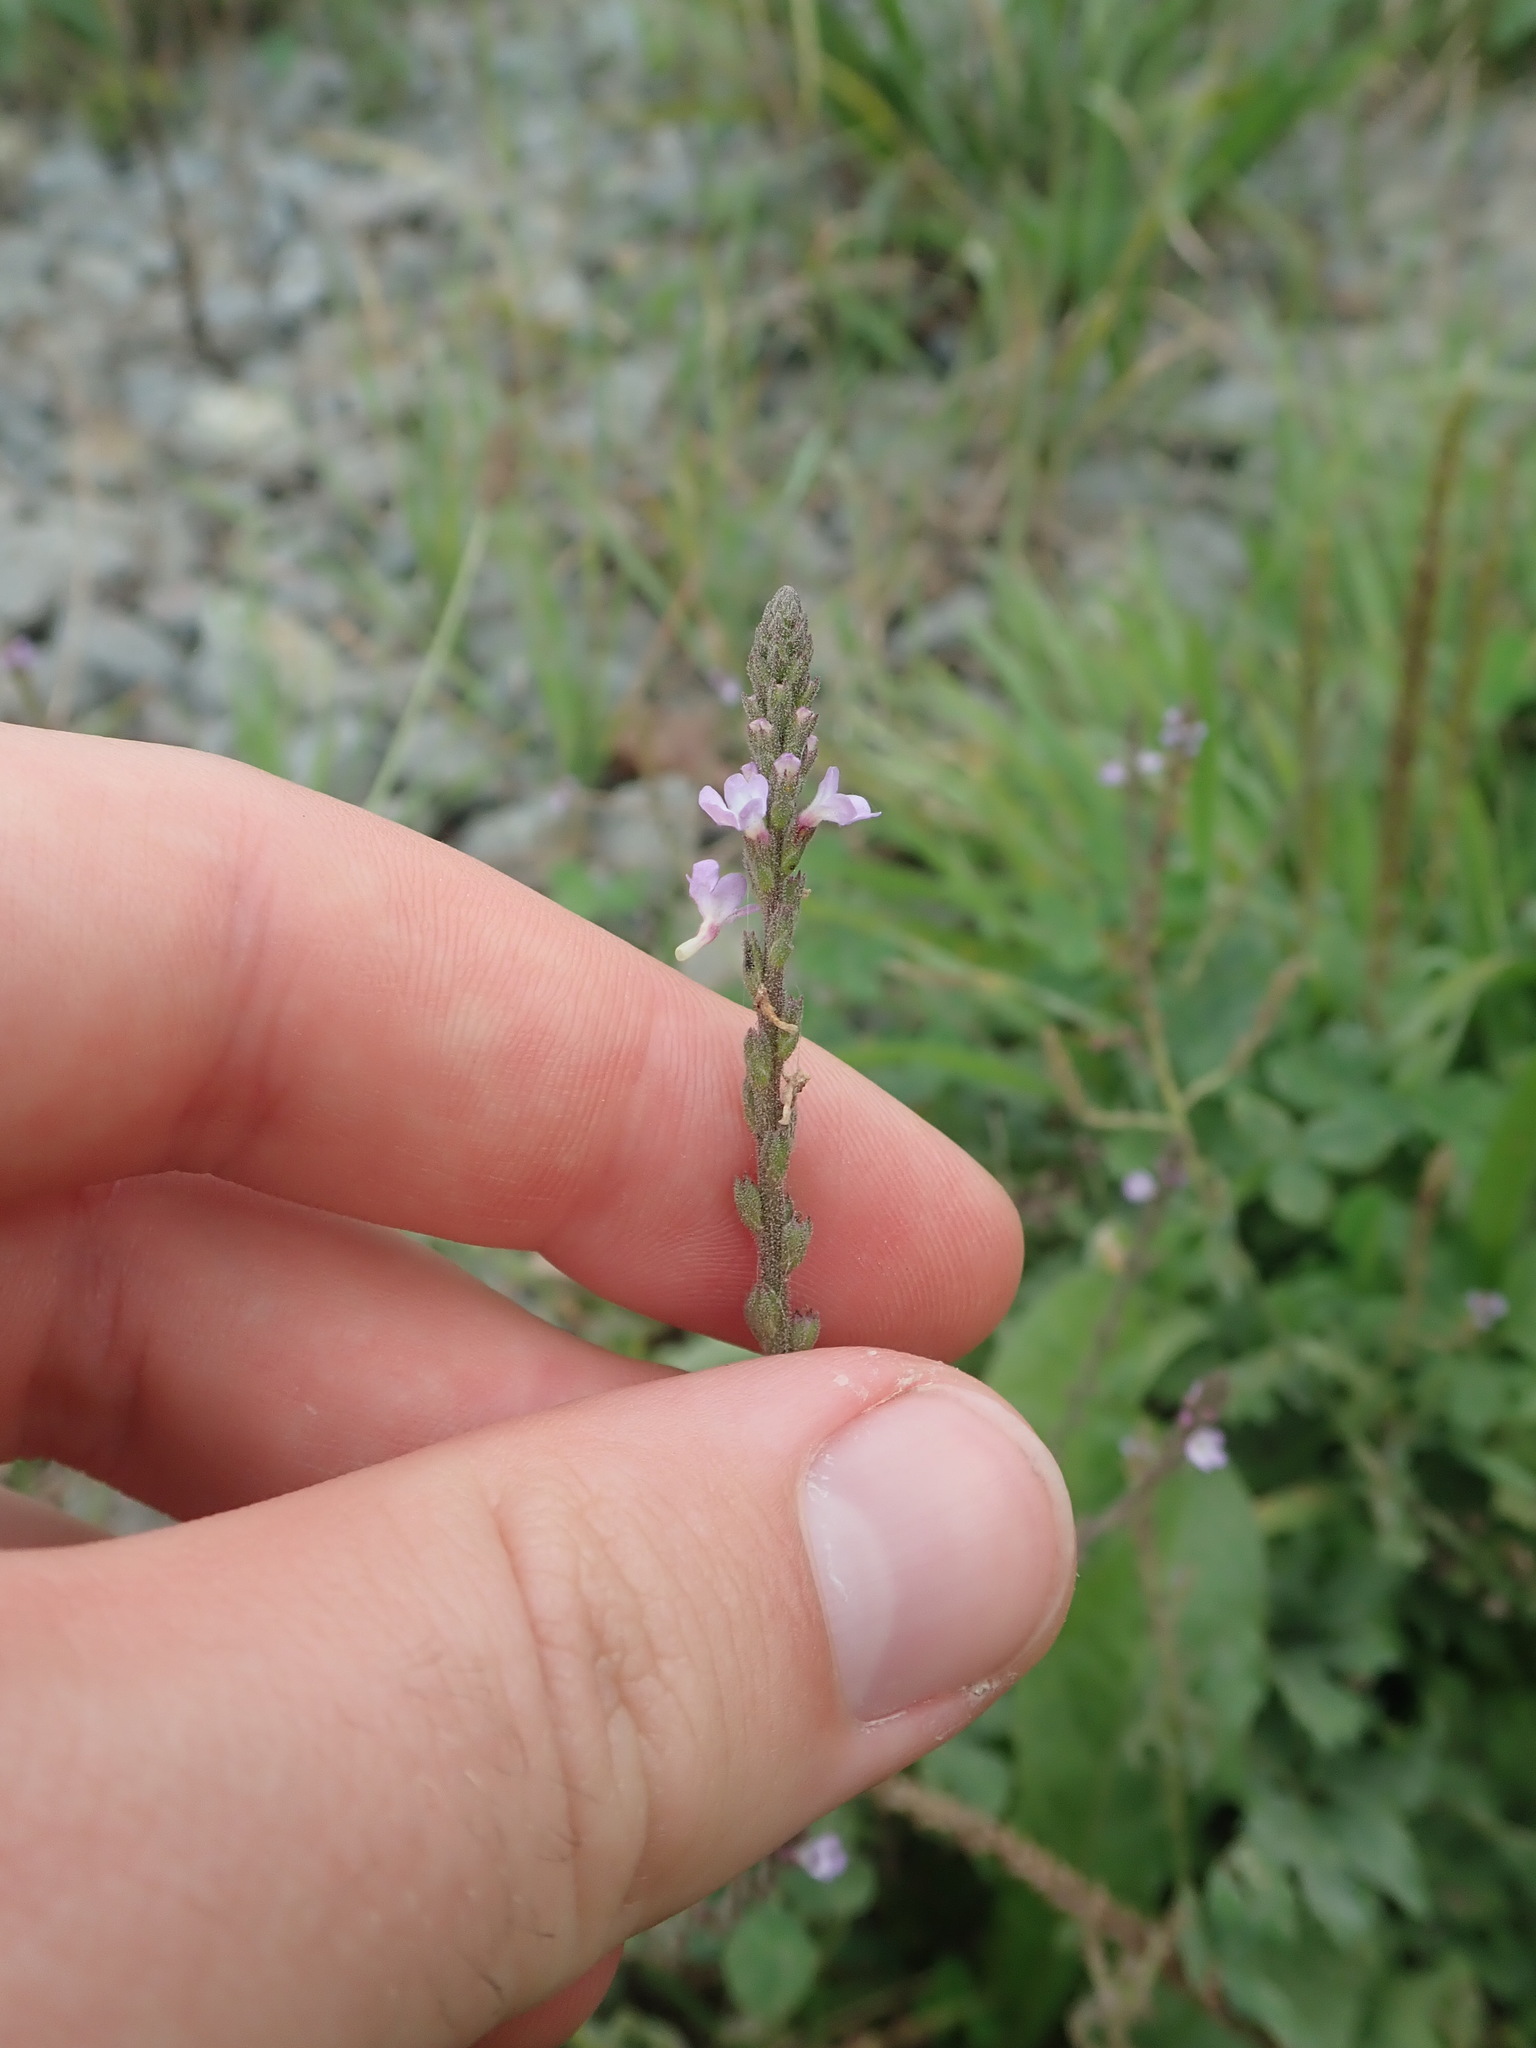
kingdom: Plantae
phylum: Tracheophyta
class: Magnoliopsida
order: Lamiales
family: Verbenaceae
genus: Verbena
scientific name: Verbena officinalis
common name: Vervain
